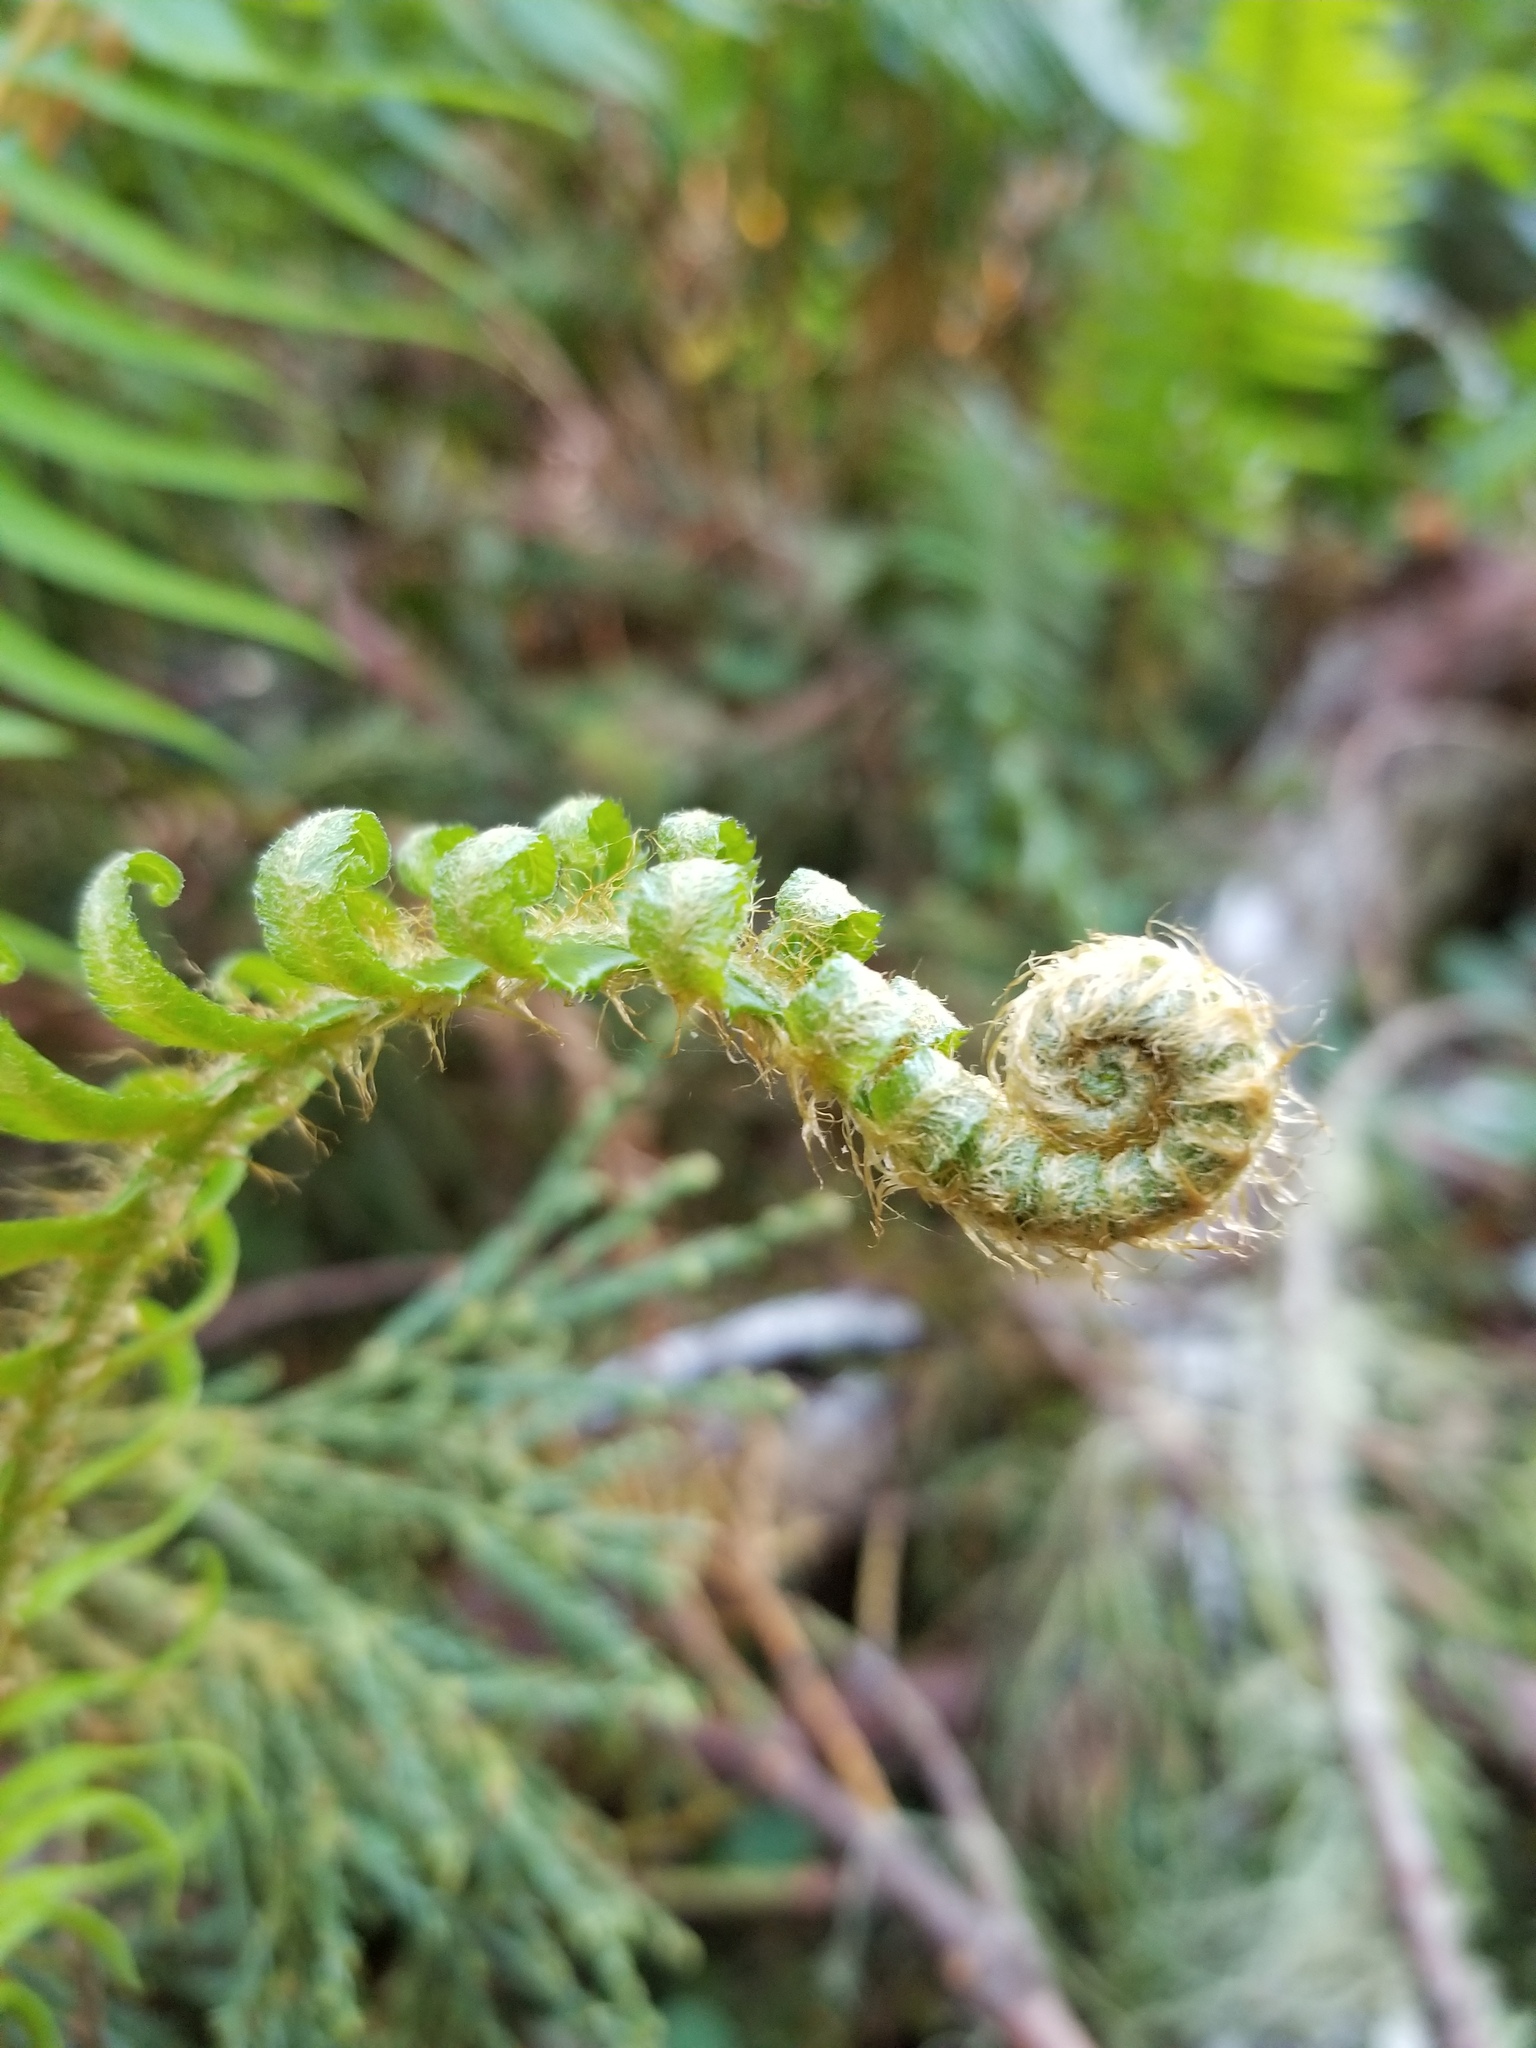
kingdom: Plantae
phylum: Tracheophyta
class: Polypodiopsida
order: Polypodiales
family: Dryopteridaceae
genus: Polystichum
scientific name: Polystichum munitum
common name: Western sword-fern
